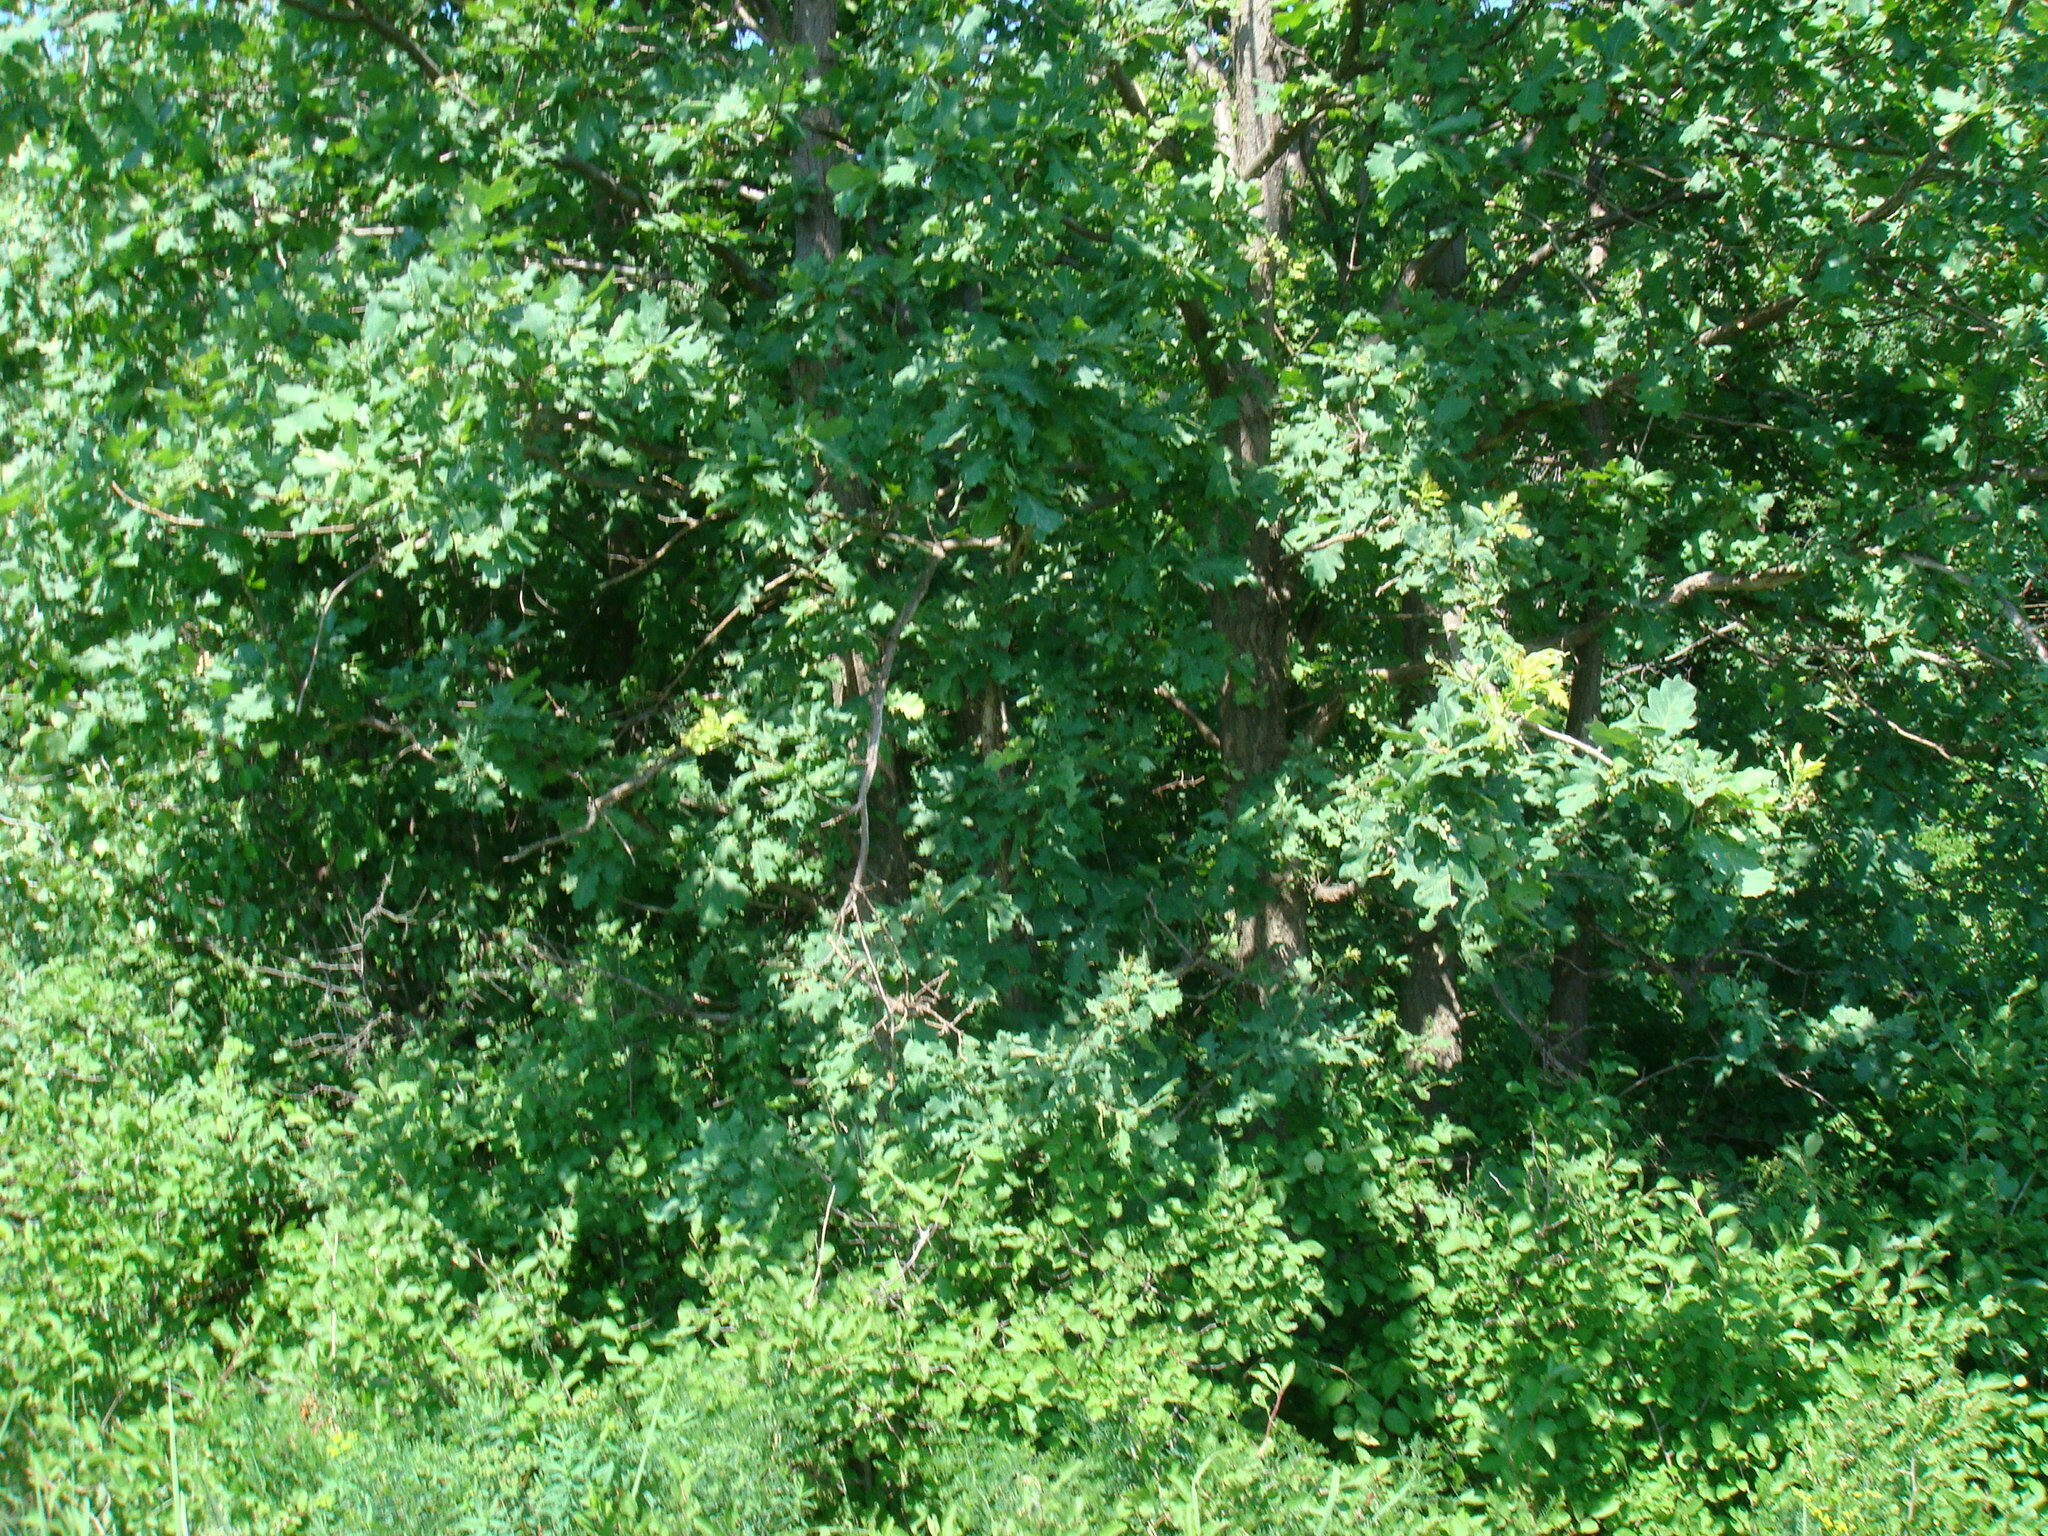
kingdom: Plantae
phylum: Tracheophyta
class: Magnoliopsida
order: Fagales
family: Fagaceae
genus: Quercus
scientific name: Quercus robur
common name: Pedunculate oak
